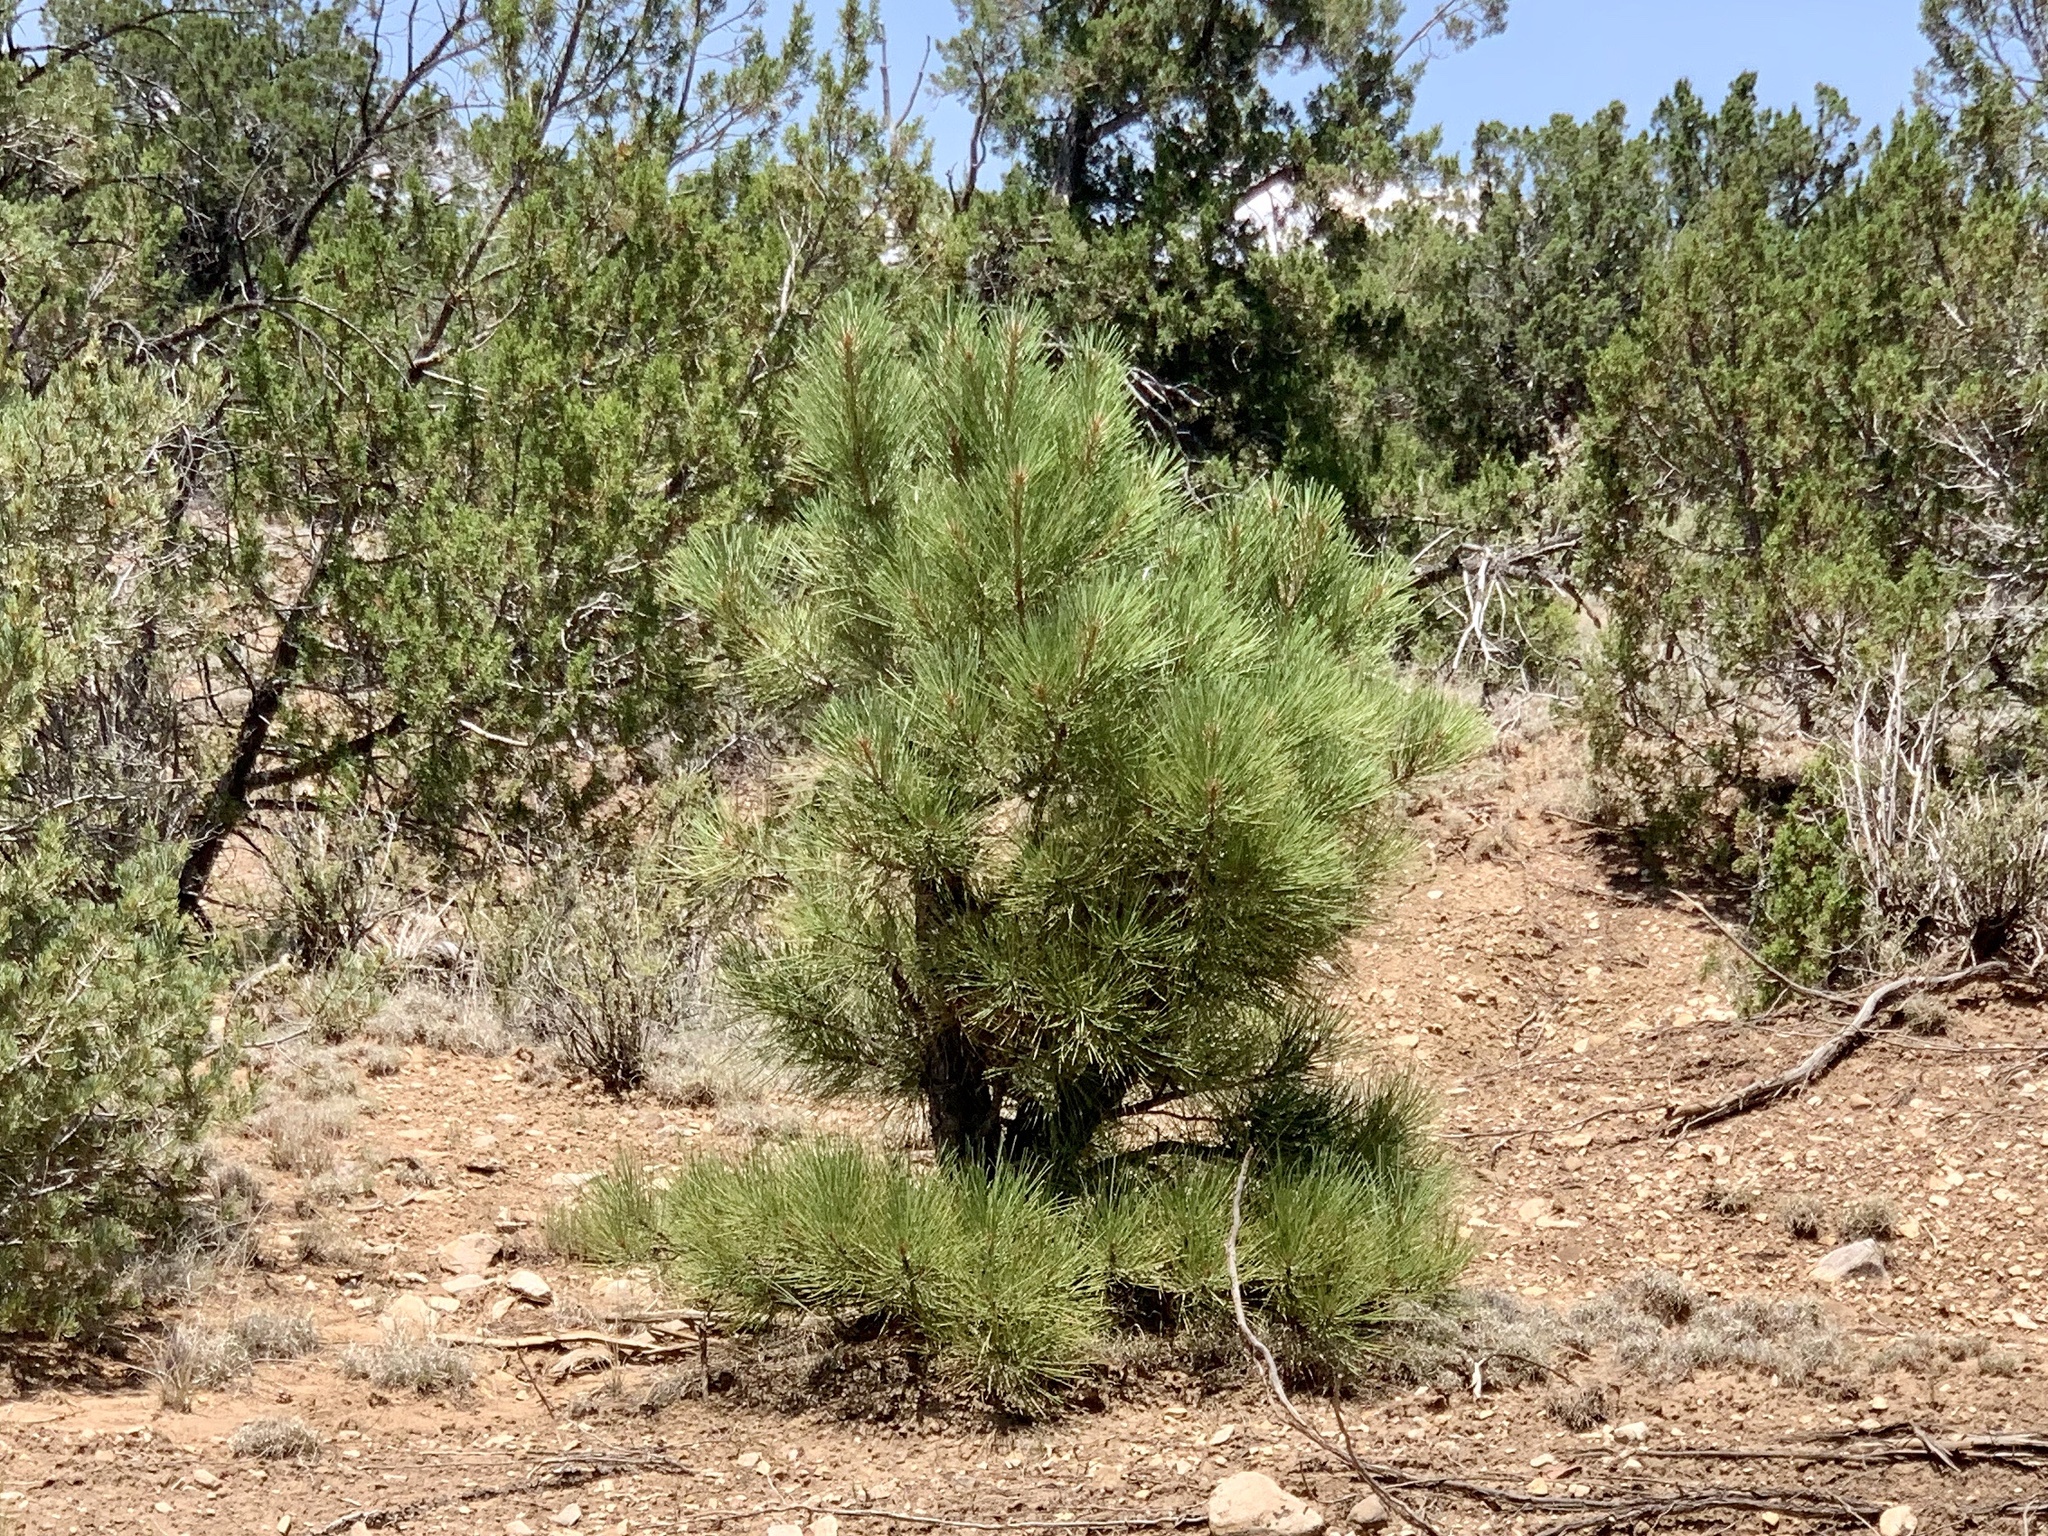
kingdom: Plantae
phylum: Tracheophyta
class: Pinopsida
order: Pinales
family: Pinaceae
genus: Pinus
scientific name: Pinus ponderosa
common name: Western yellow-pine
